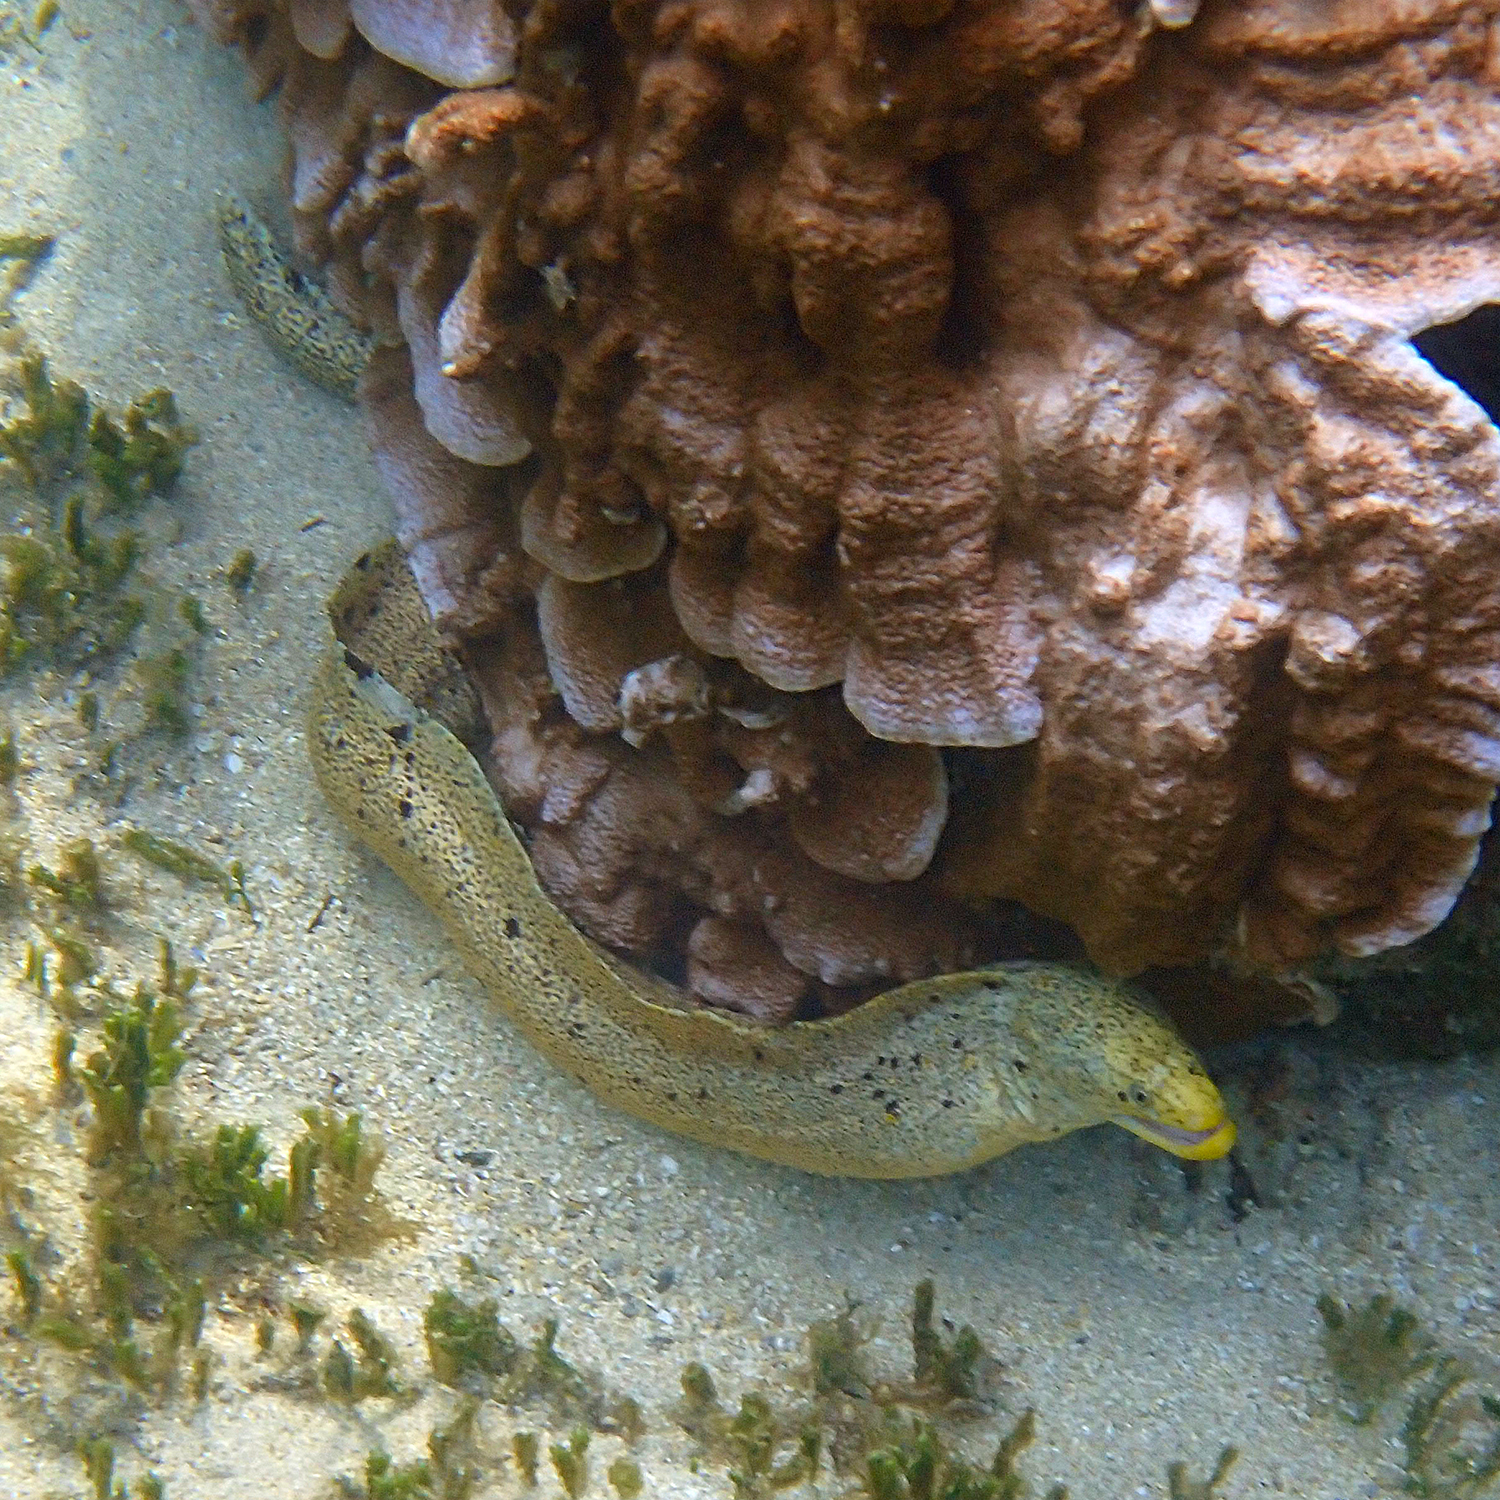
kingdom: Animalia
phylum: Chordata
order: Anguilliformes
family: Muraenidae
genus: Gymnothorax
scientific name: Gymnothorax eurostus
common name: Stout moray
